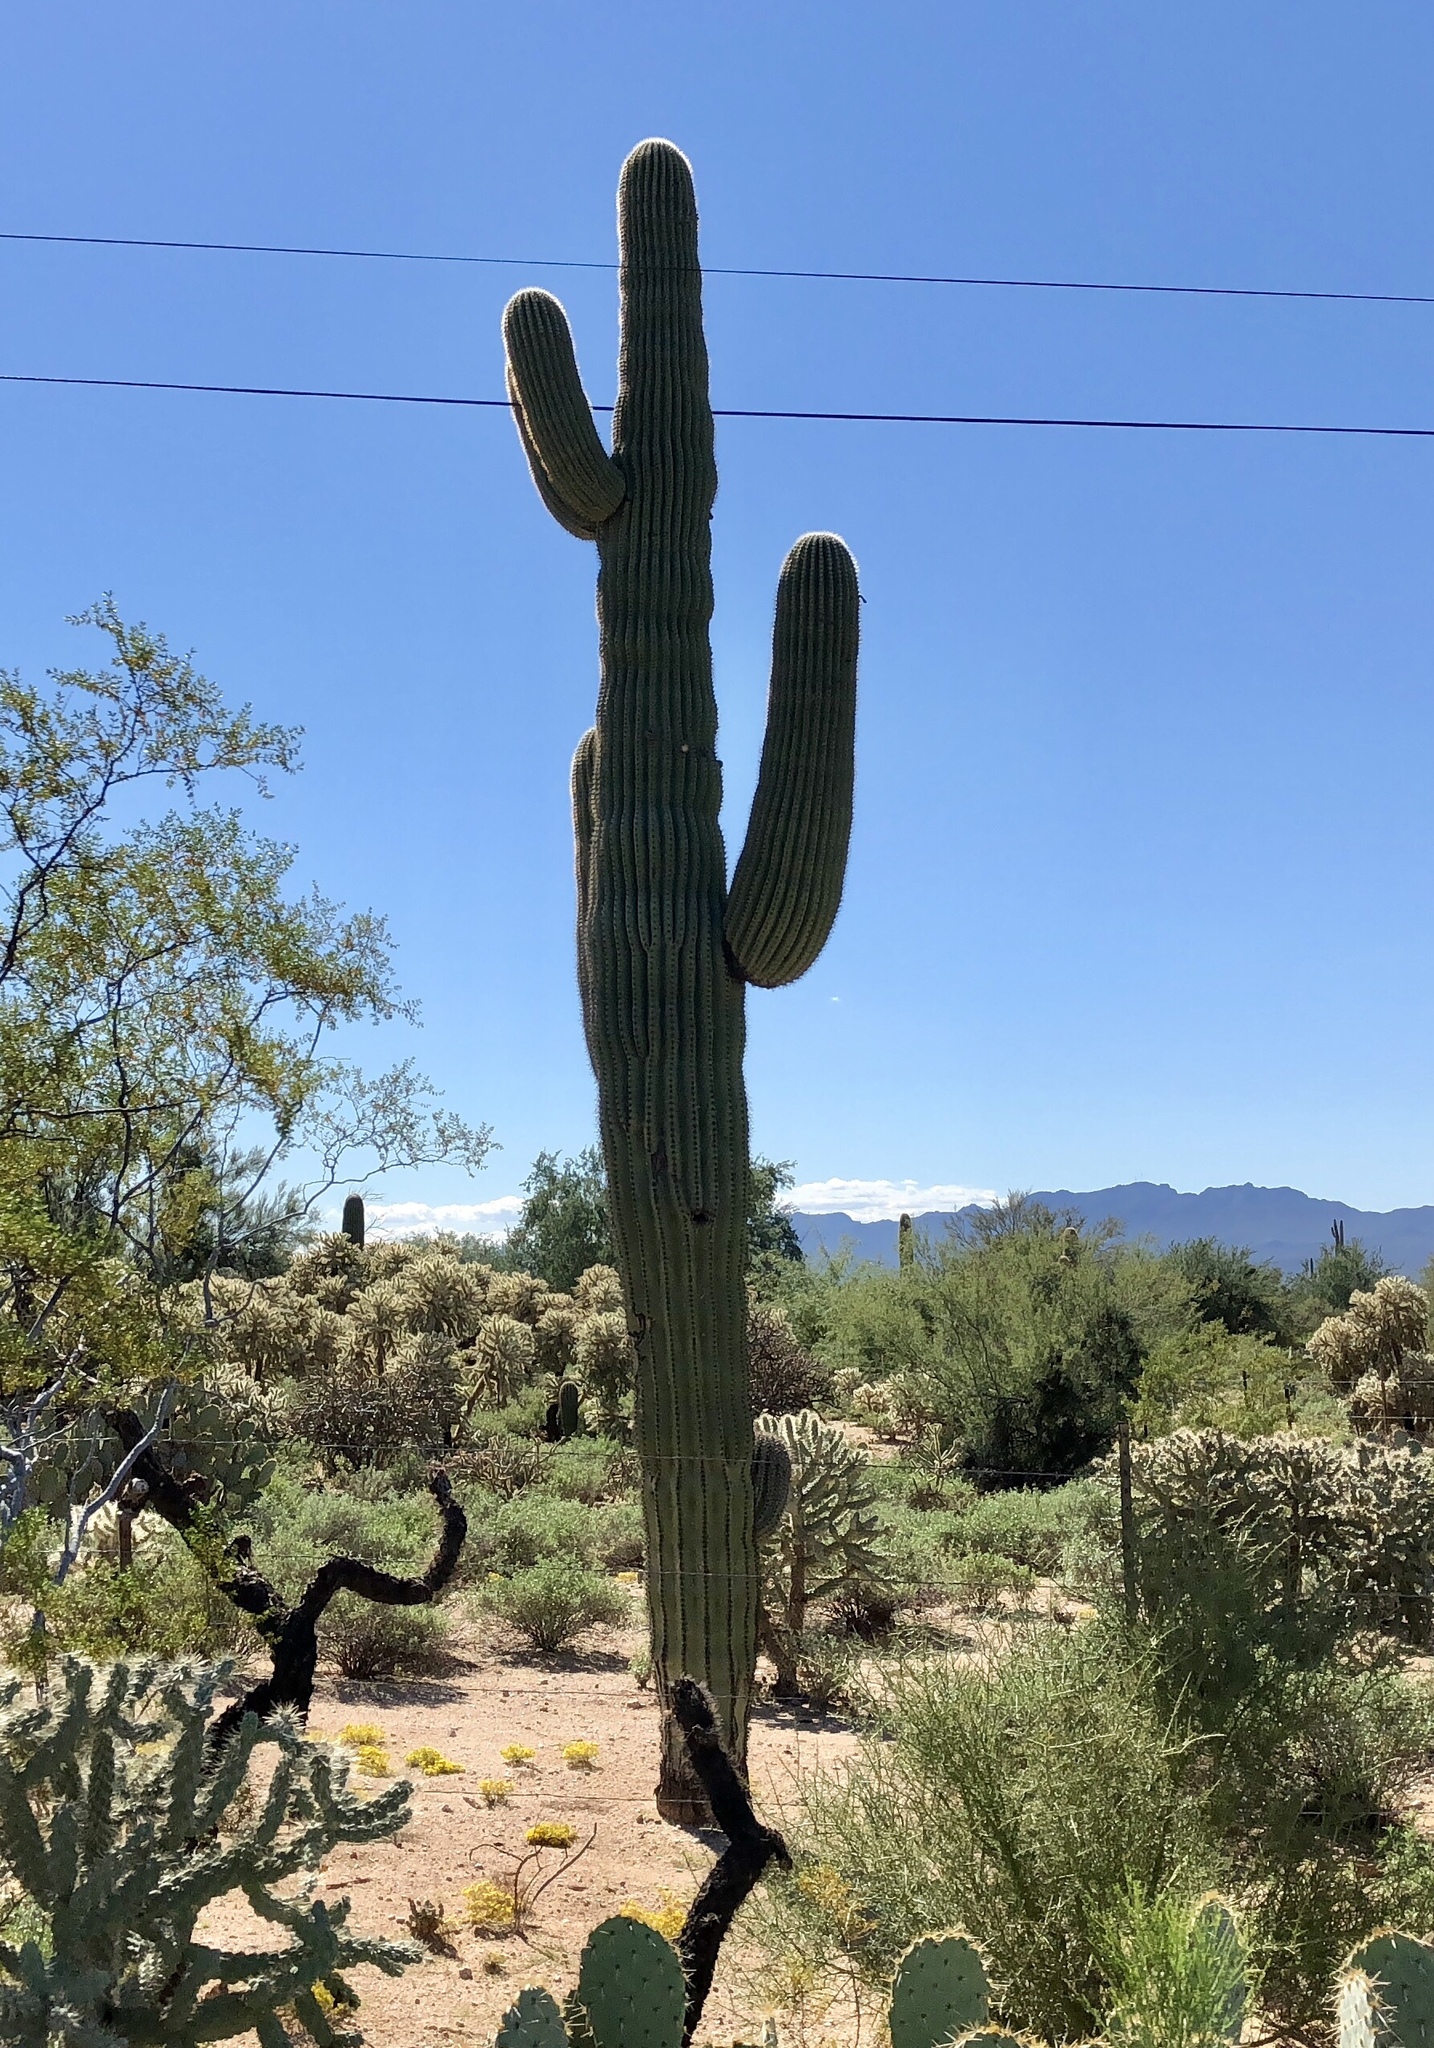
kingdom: Plantae
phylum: Tracheophyta
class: Magnoliopsida
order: Caryophyllales
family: Cactaceae
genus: Carnegiea
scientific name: Carnegiea gigantea
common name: Saguaro
